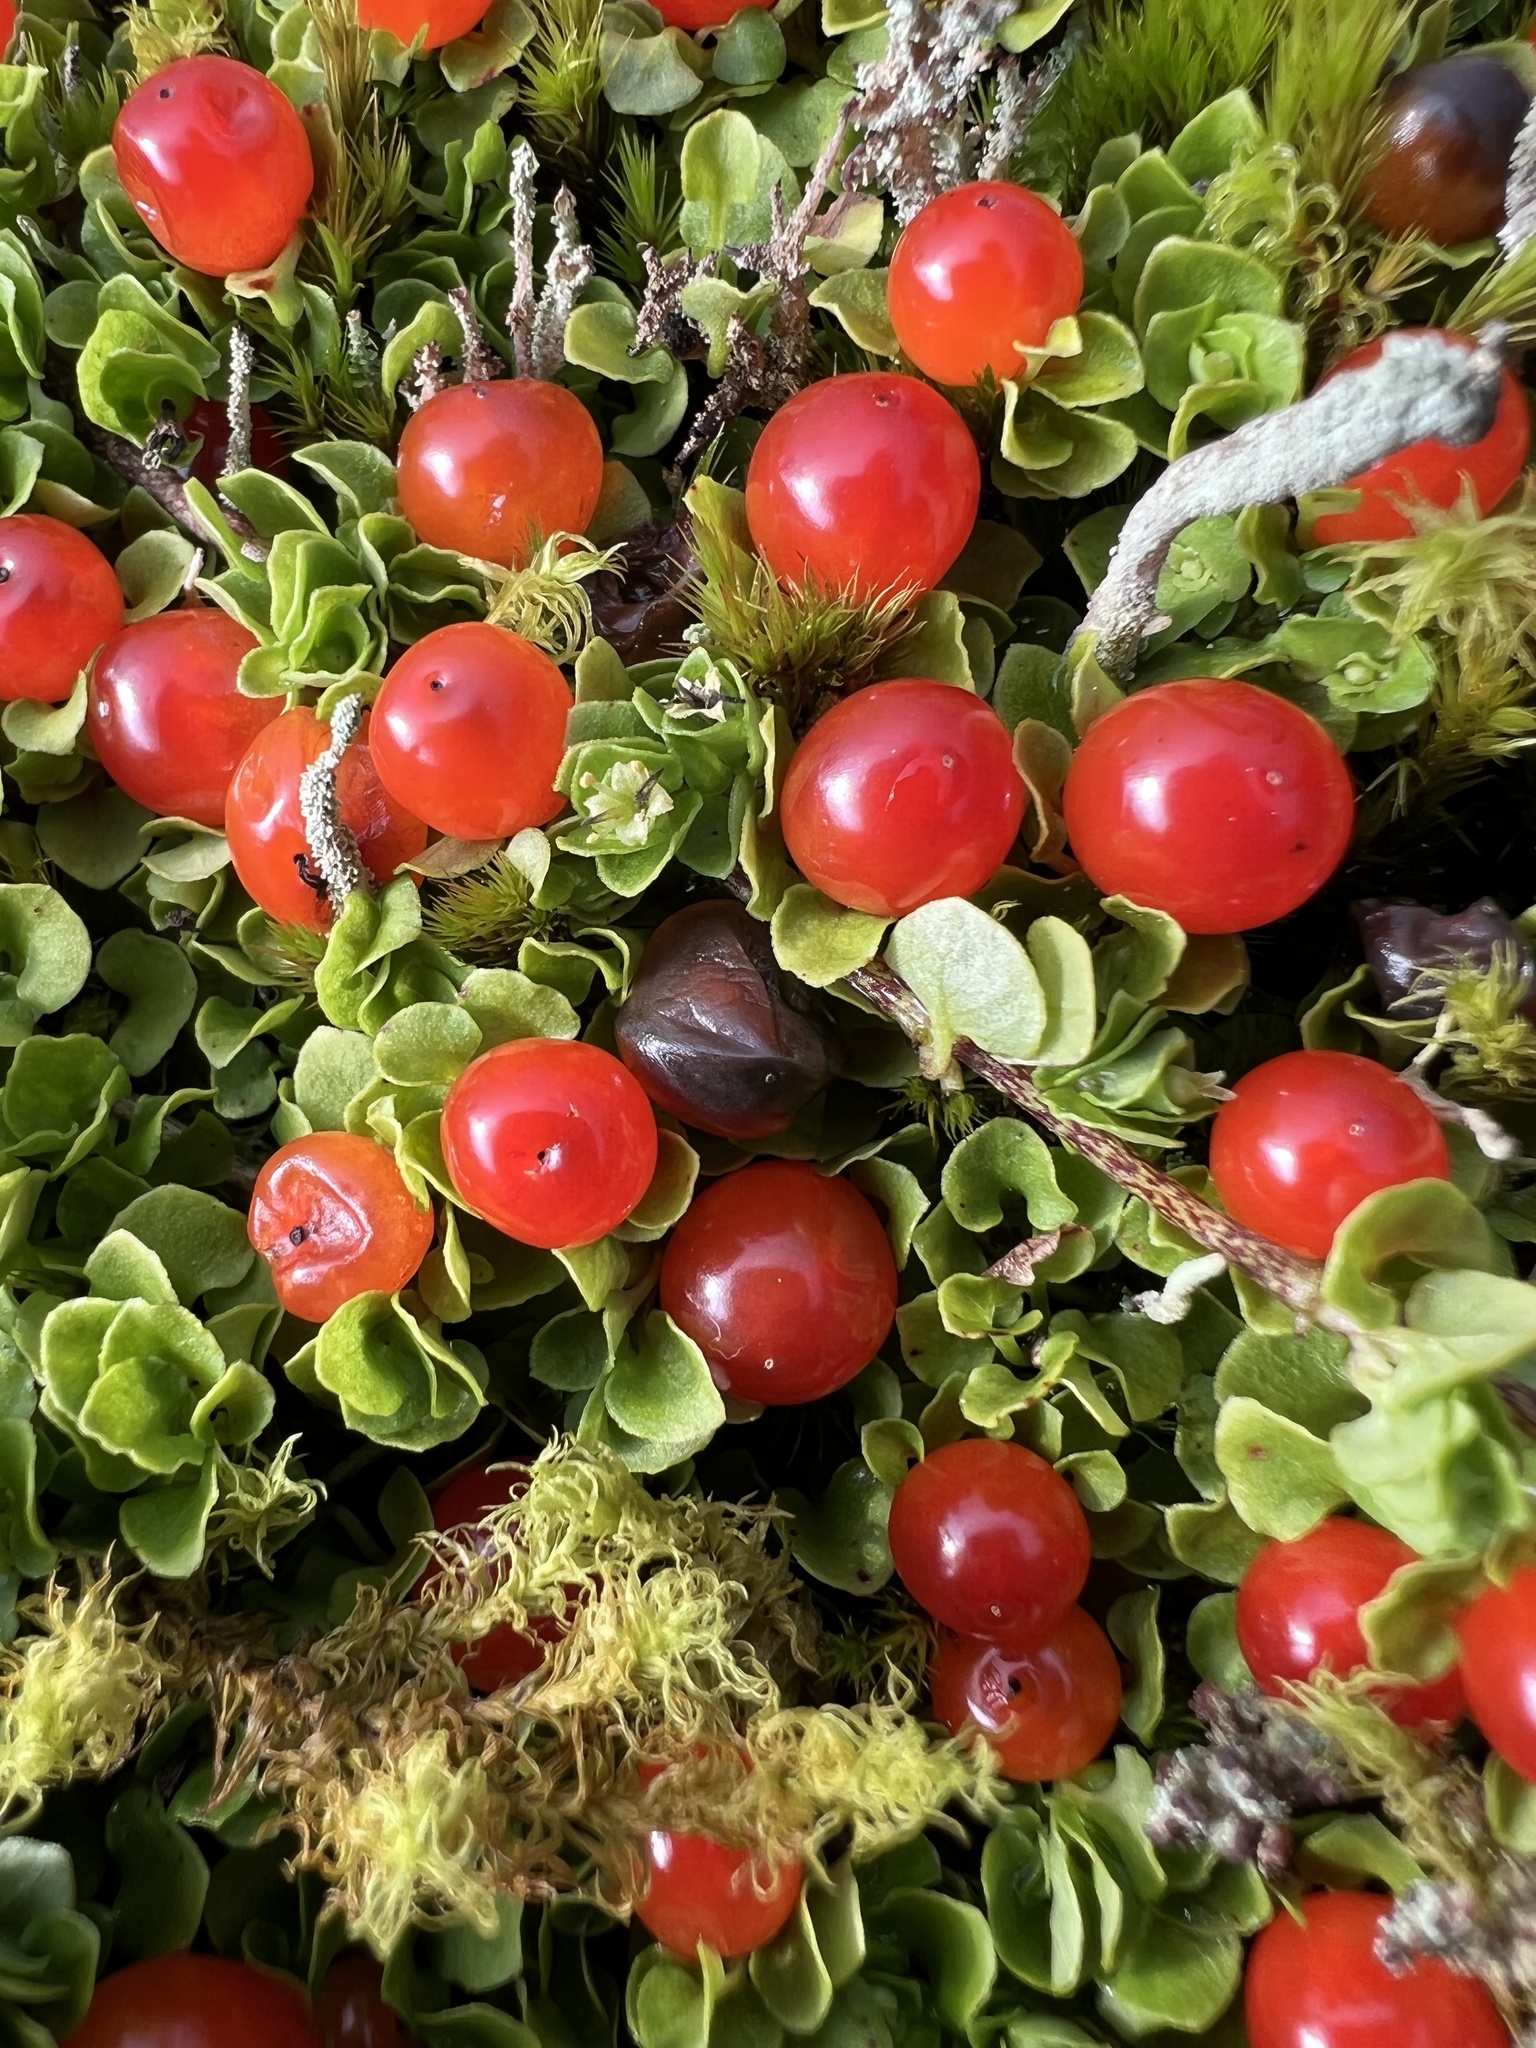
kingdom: Plantae
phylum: Tracheophyta
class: Magnoliopsida
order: Gentianales
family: Rubiaceae
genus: Nertera
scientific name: Nertera granadensis
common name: Beadplant
